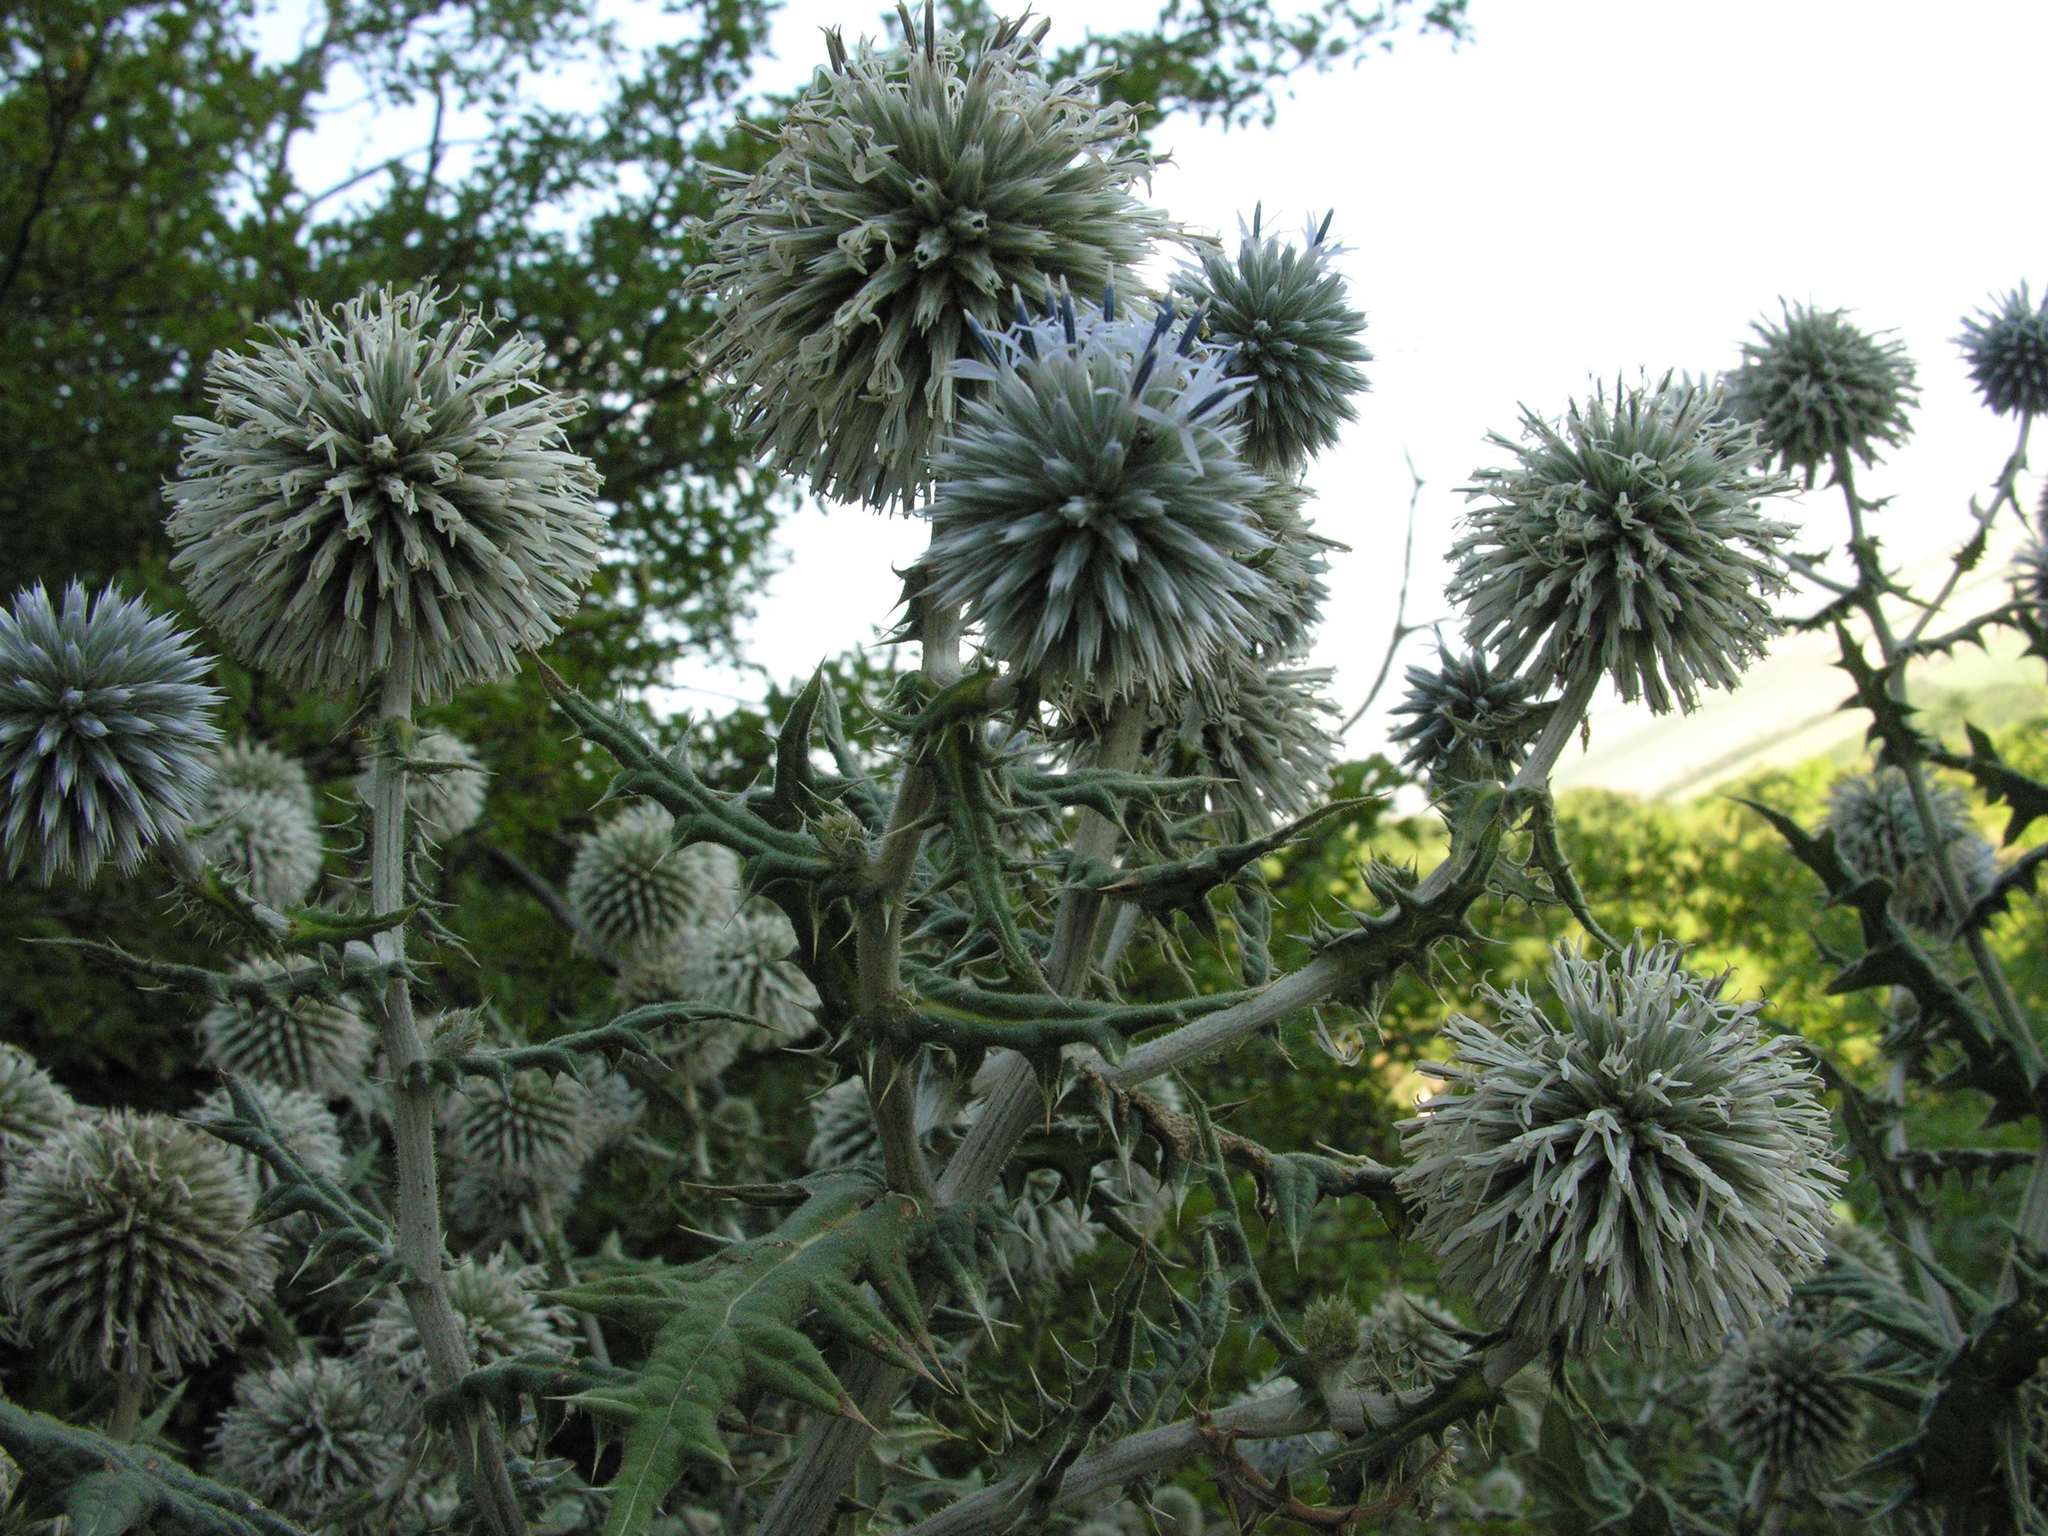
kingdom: Plantae
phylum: Tracheophyta
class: Magnoliopsida
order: Asterales
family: Asteraceae
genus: Echinops
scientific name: Echinops sphaerocephalus
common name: Glandular globe-thistle
